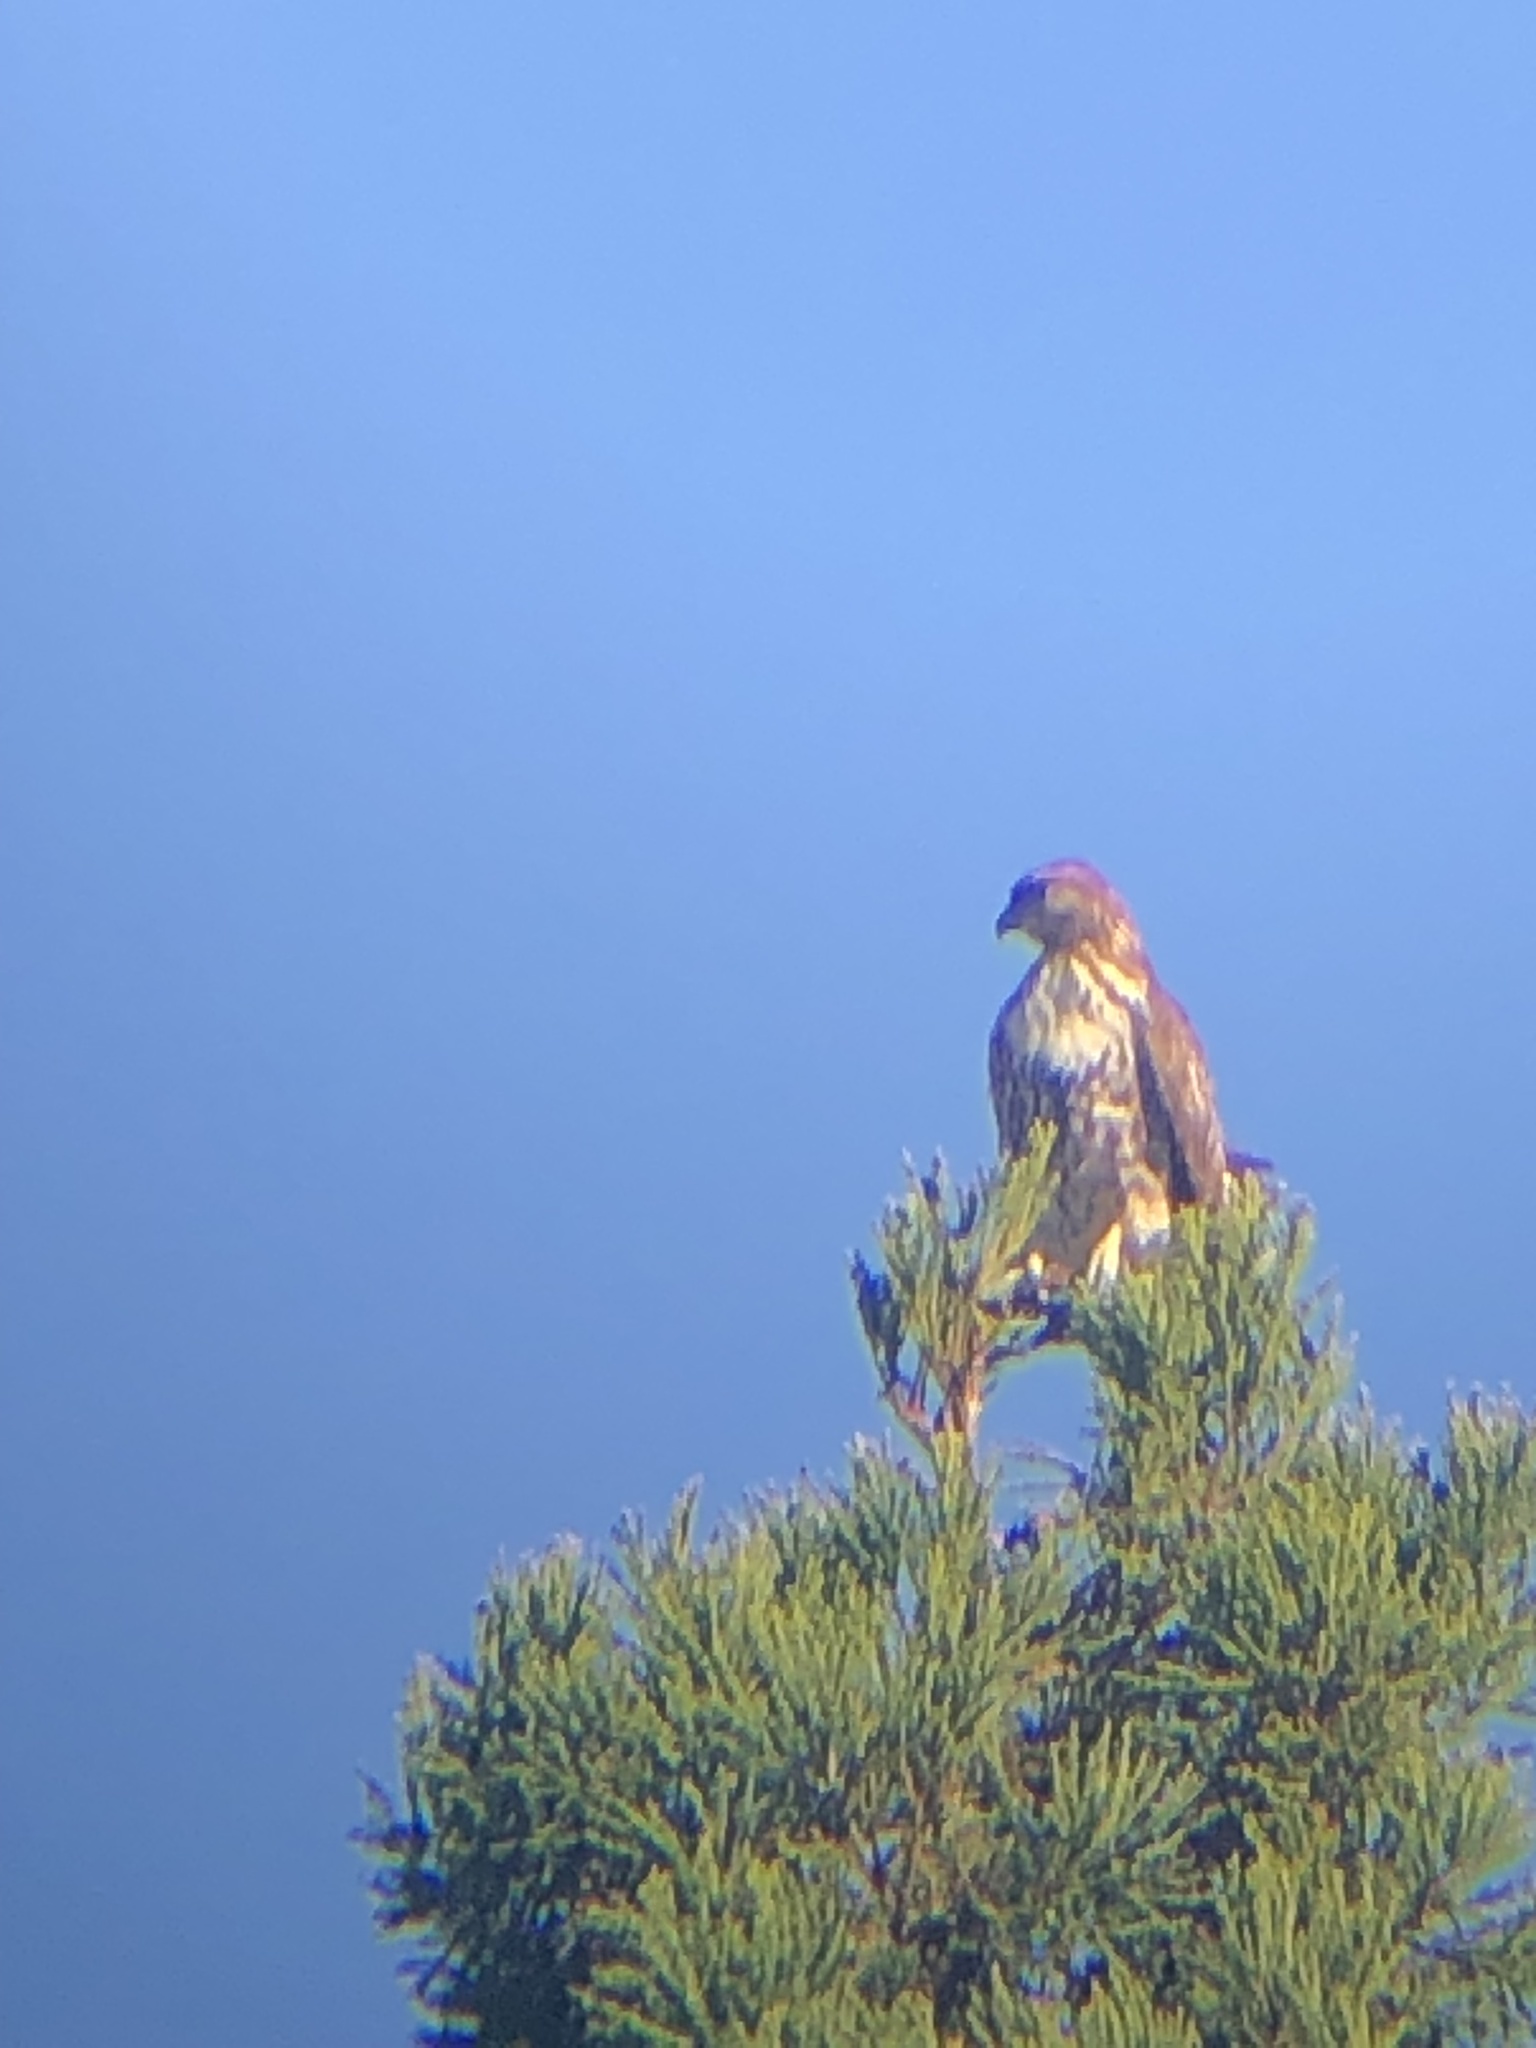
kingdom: Animalia
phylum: Chordata
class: Aves
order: Accipitriformes
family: Accipitridae
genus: Buteo
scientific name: Buteo jamaicensis
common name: Red-tailed hawk
